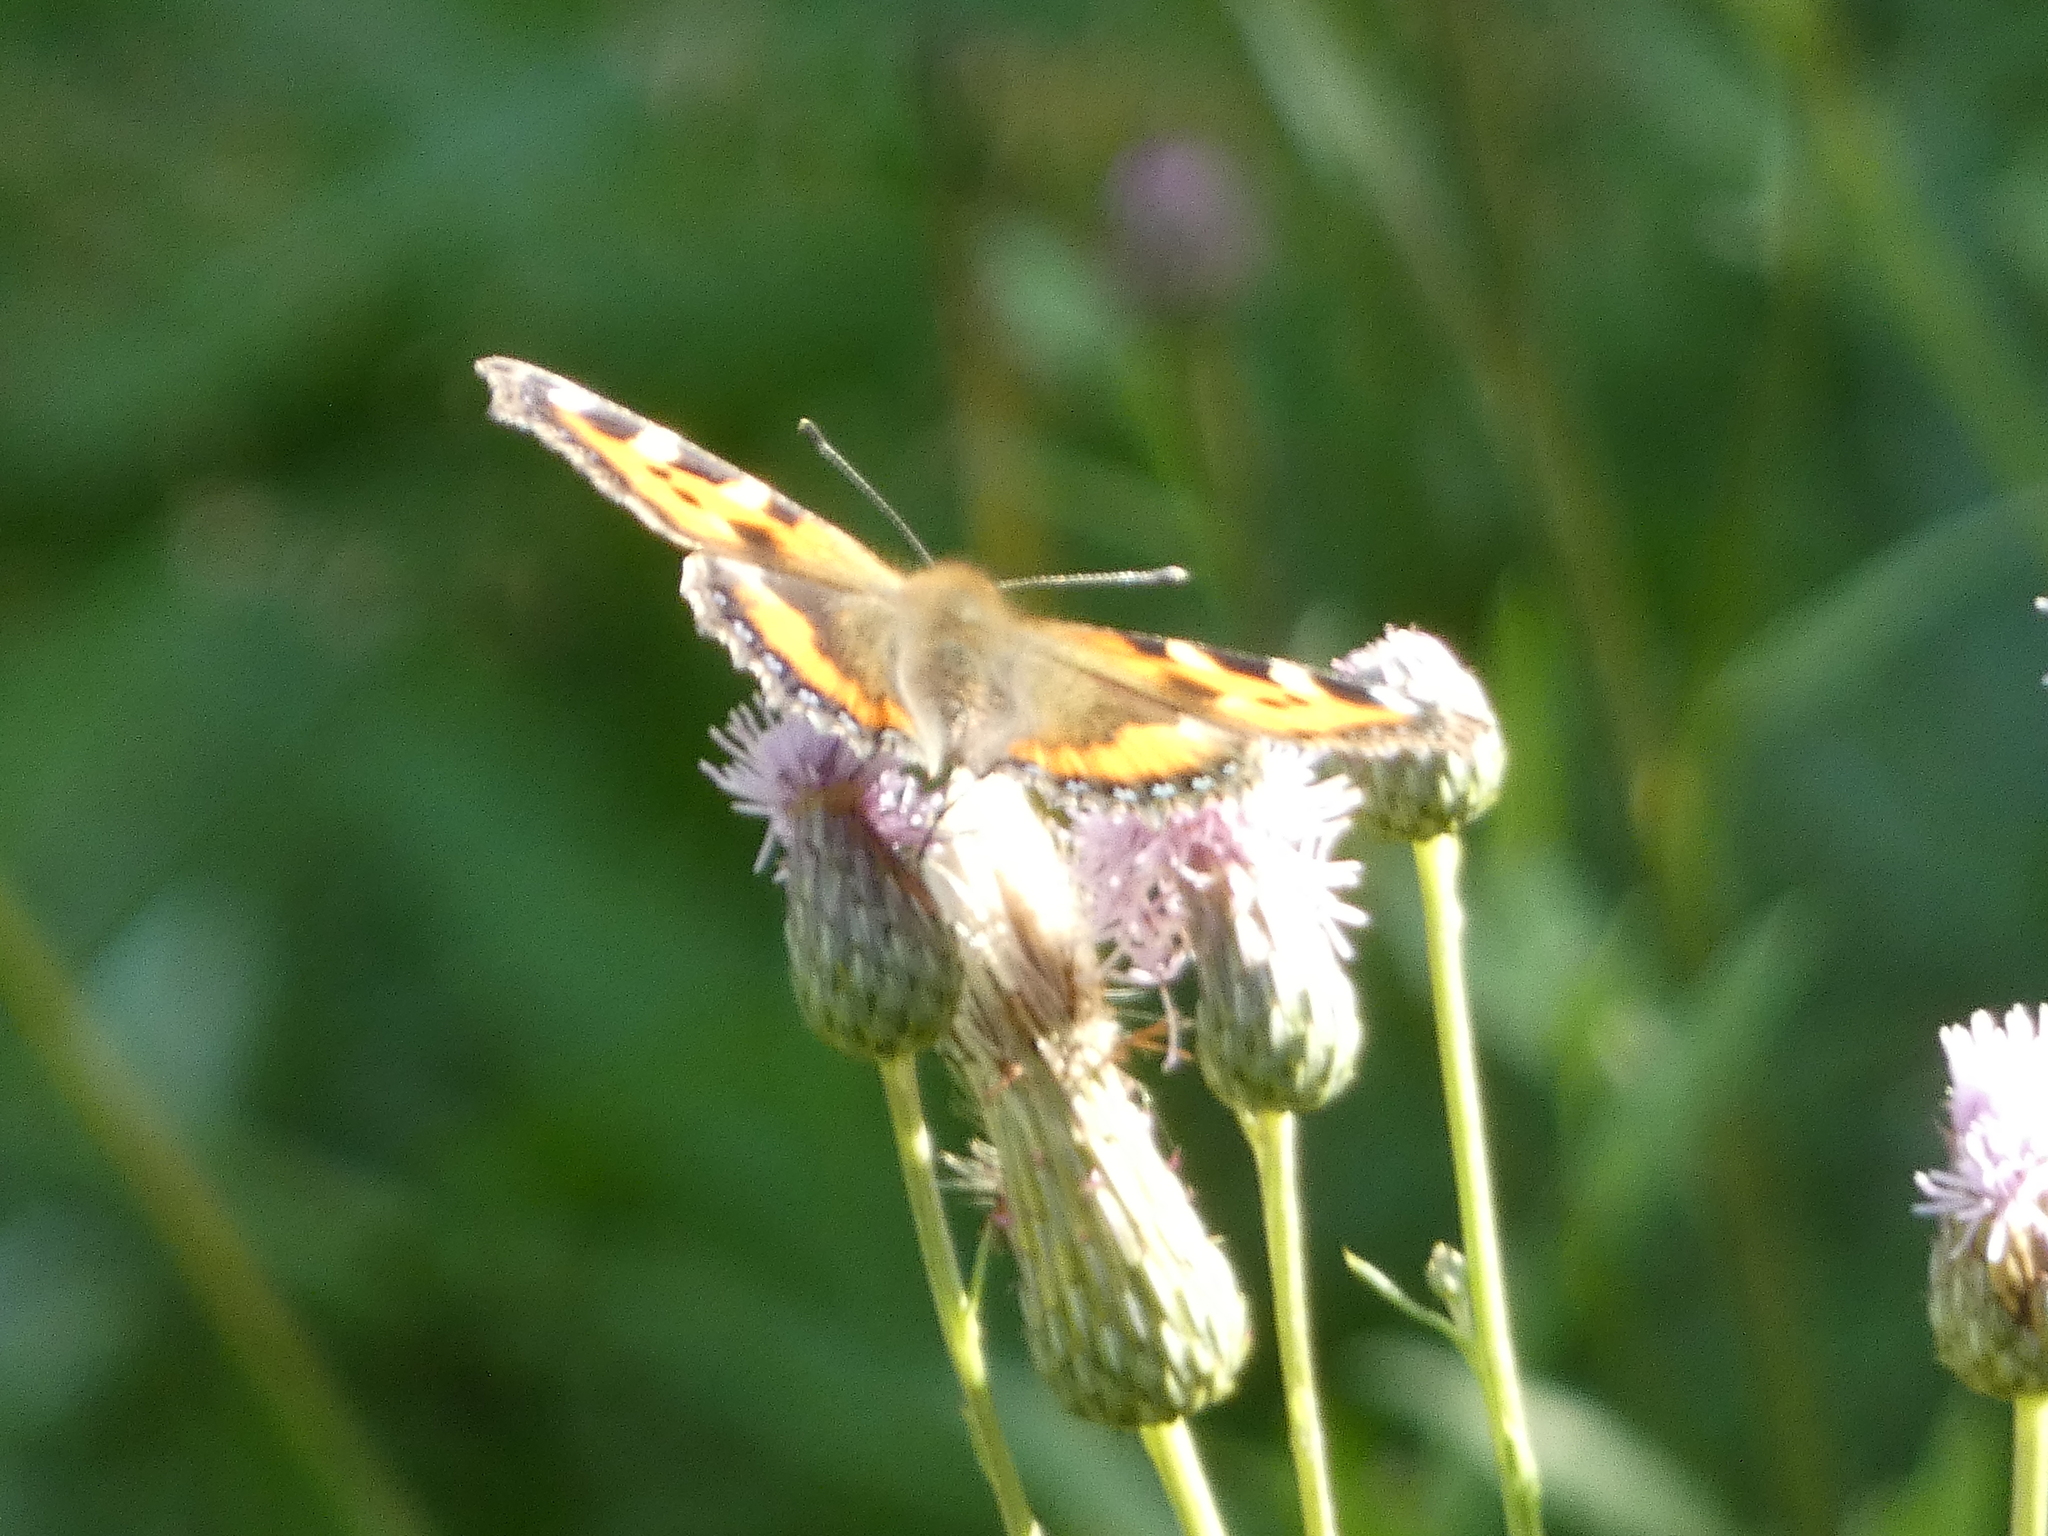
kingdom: Animalia
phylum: Arthropoda
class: Insecta
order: Lepidoptera
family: Nymphalidae
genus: Aglais
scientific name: Aglais urticae
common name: Small tortoiseshell
